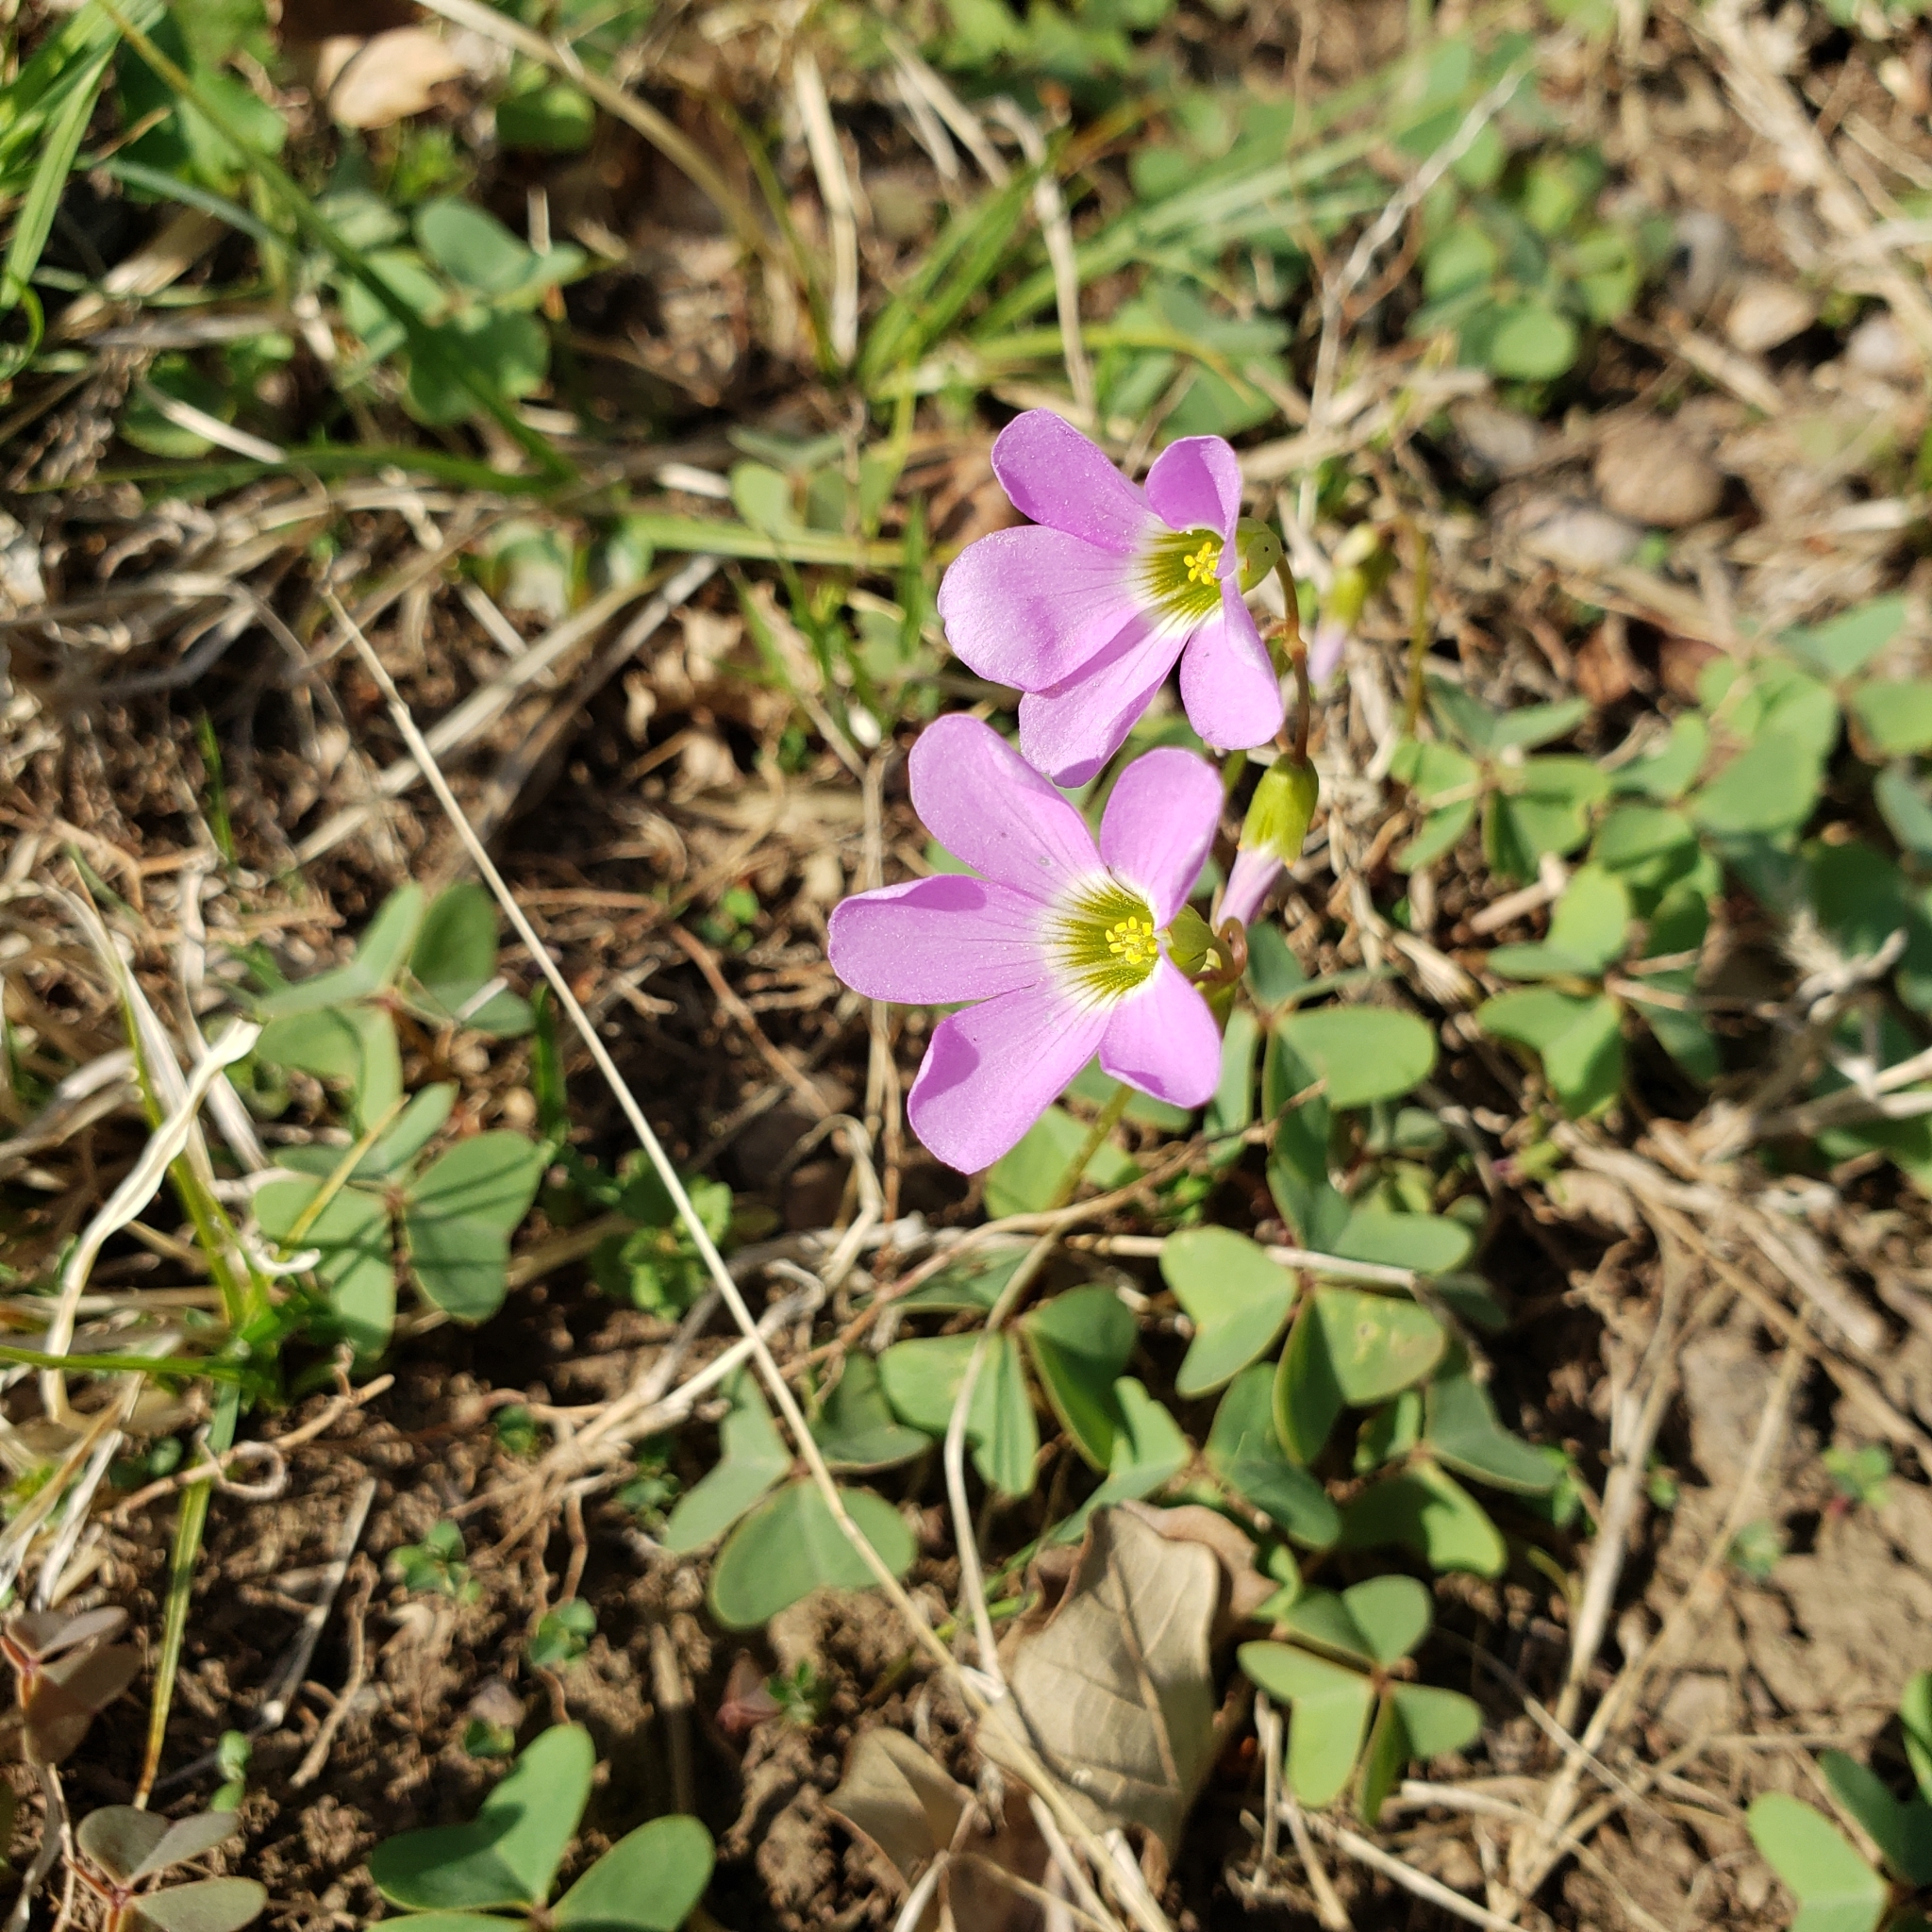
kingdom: Plantae
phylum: Tracheophyta
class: Magnoliopsida
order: Oxalidales
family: Oxalidaceae
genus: Oxalis
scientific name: Oxalis violacea
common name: Violet wood-sorrel
